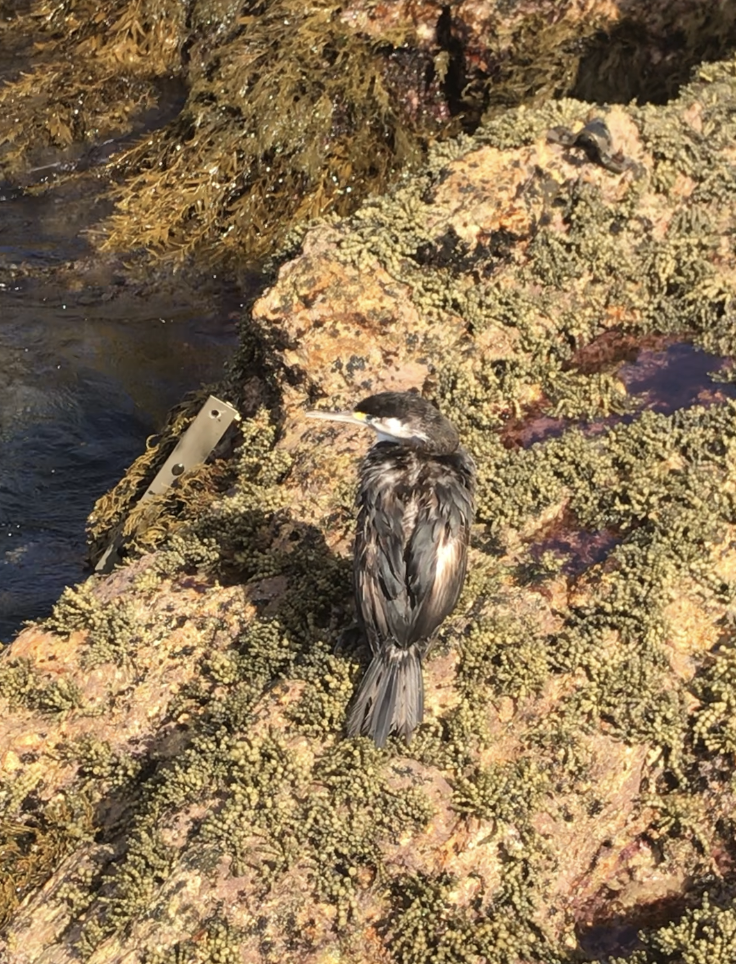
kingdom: Animalia
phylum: Chordata
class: Aves
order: Suliformes
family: Phalacrocoracidae
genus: Phalacrocorax
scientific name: Phalacrocorax varius
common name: Pied cormorant
